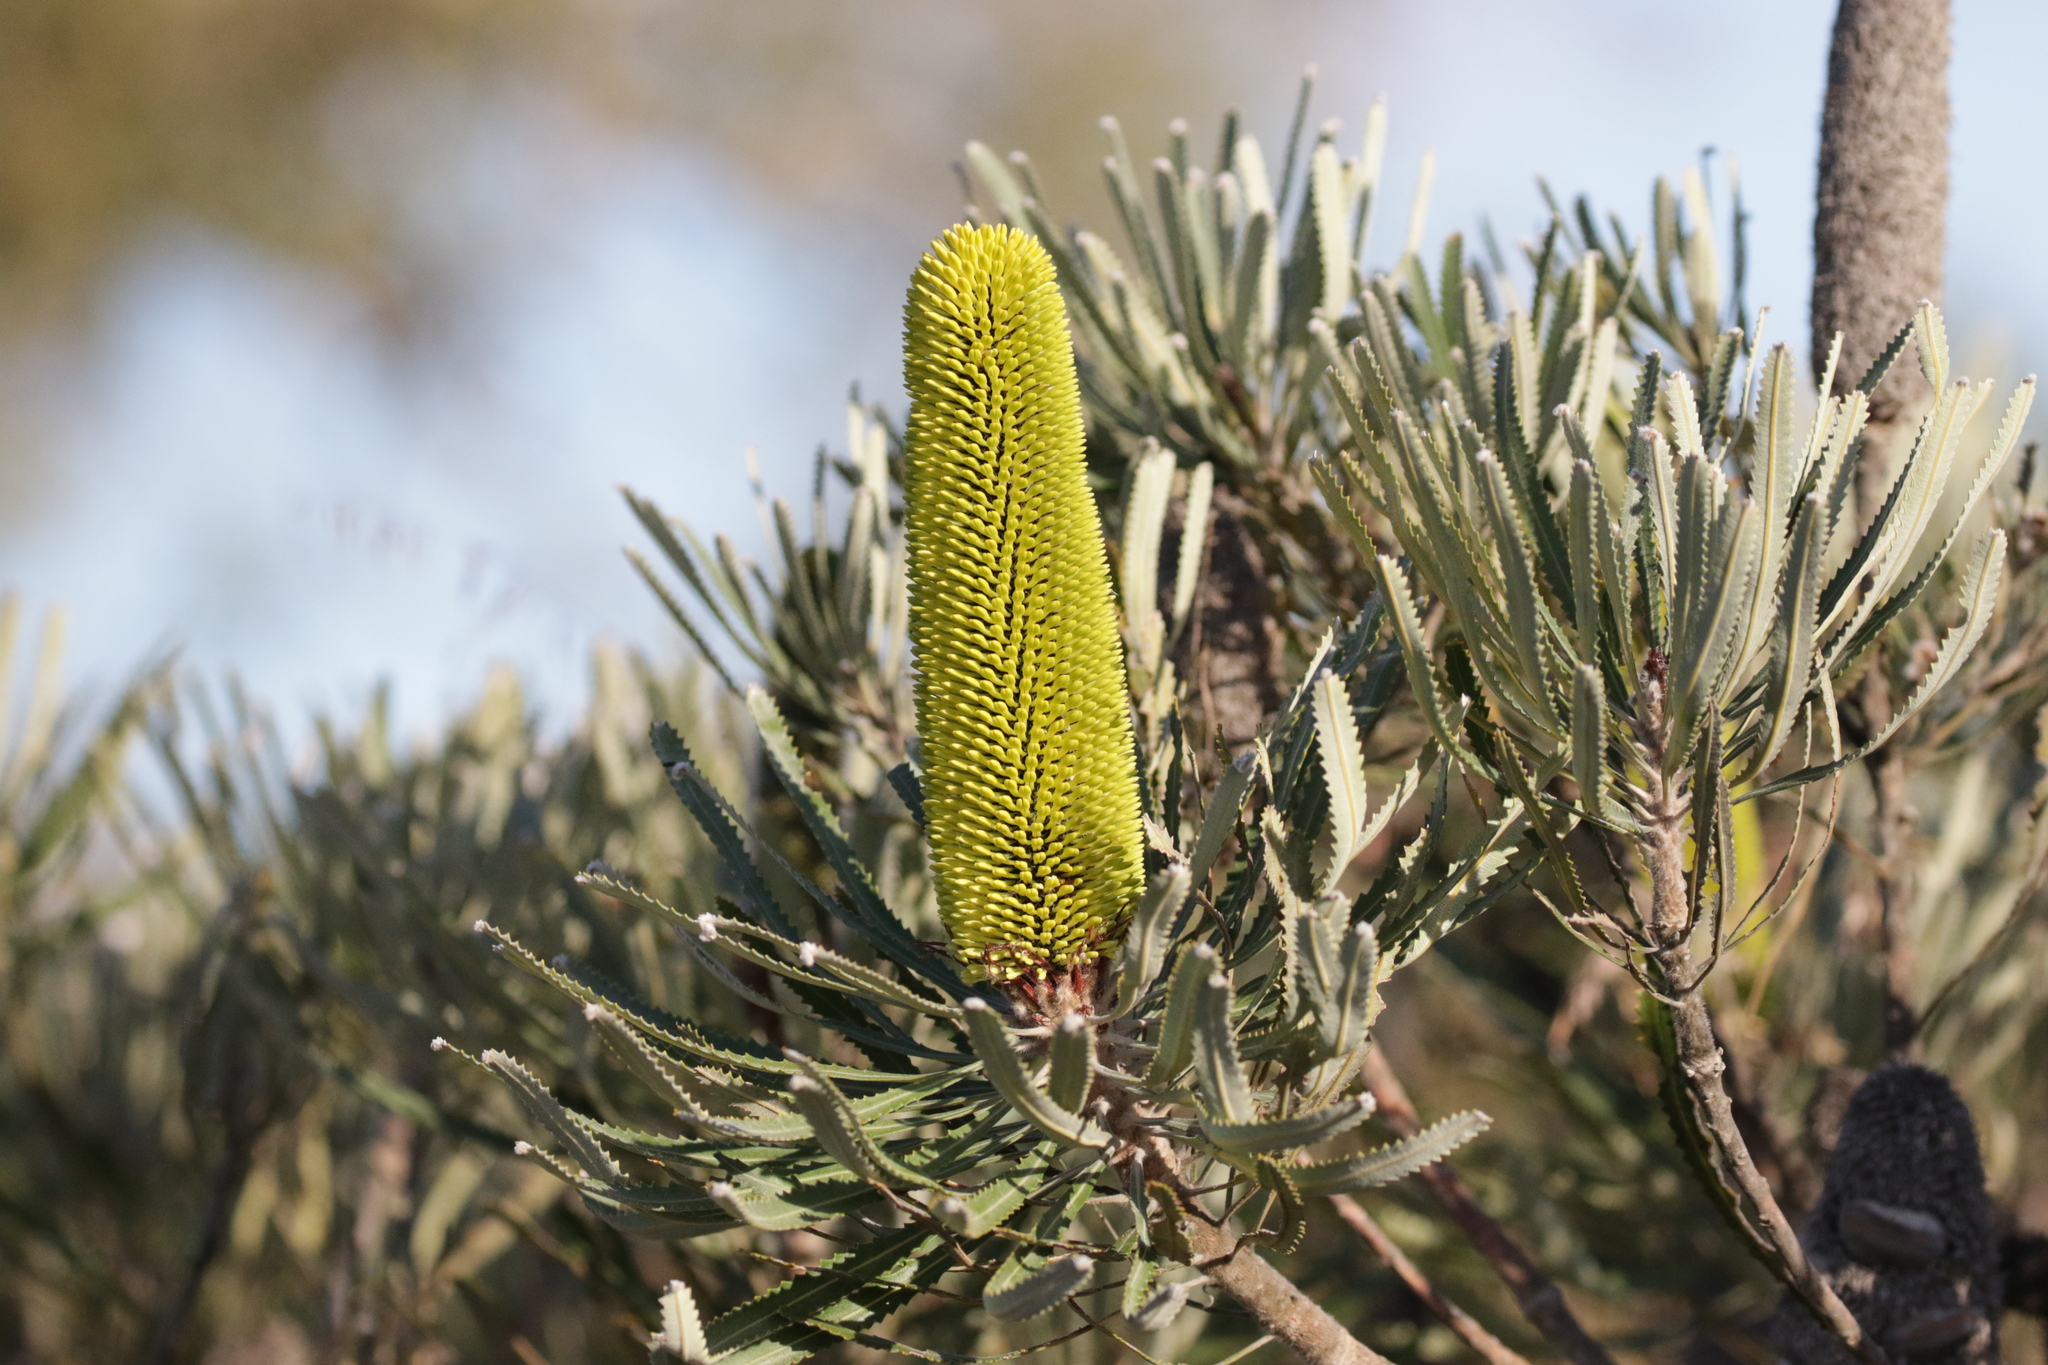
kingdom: Plantae
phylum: Tracheophyta
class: Magnoliopsida
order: Proteales
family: Proteaceae
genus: Banksia
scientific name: Banksia attenuata
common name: Coast banksia
